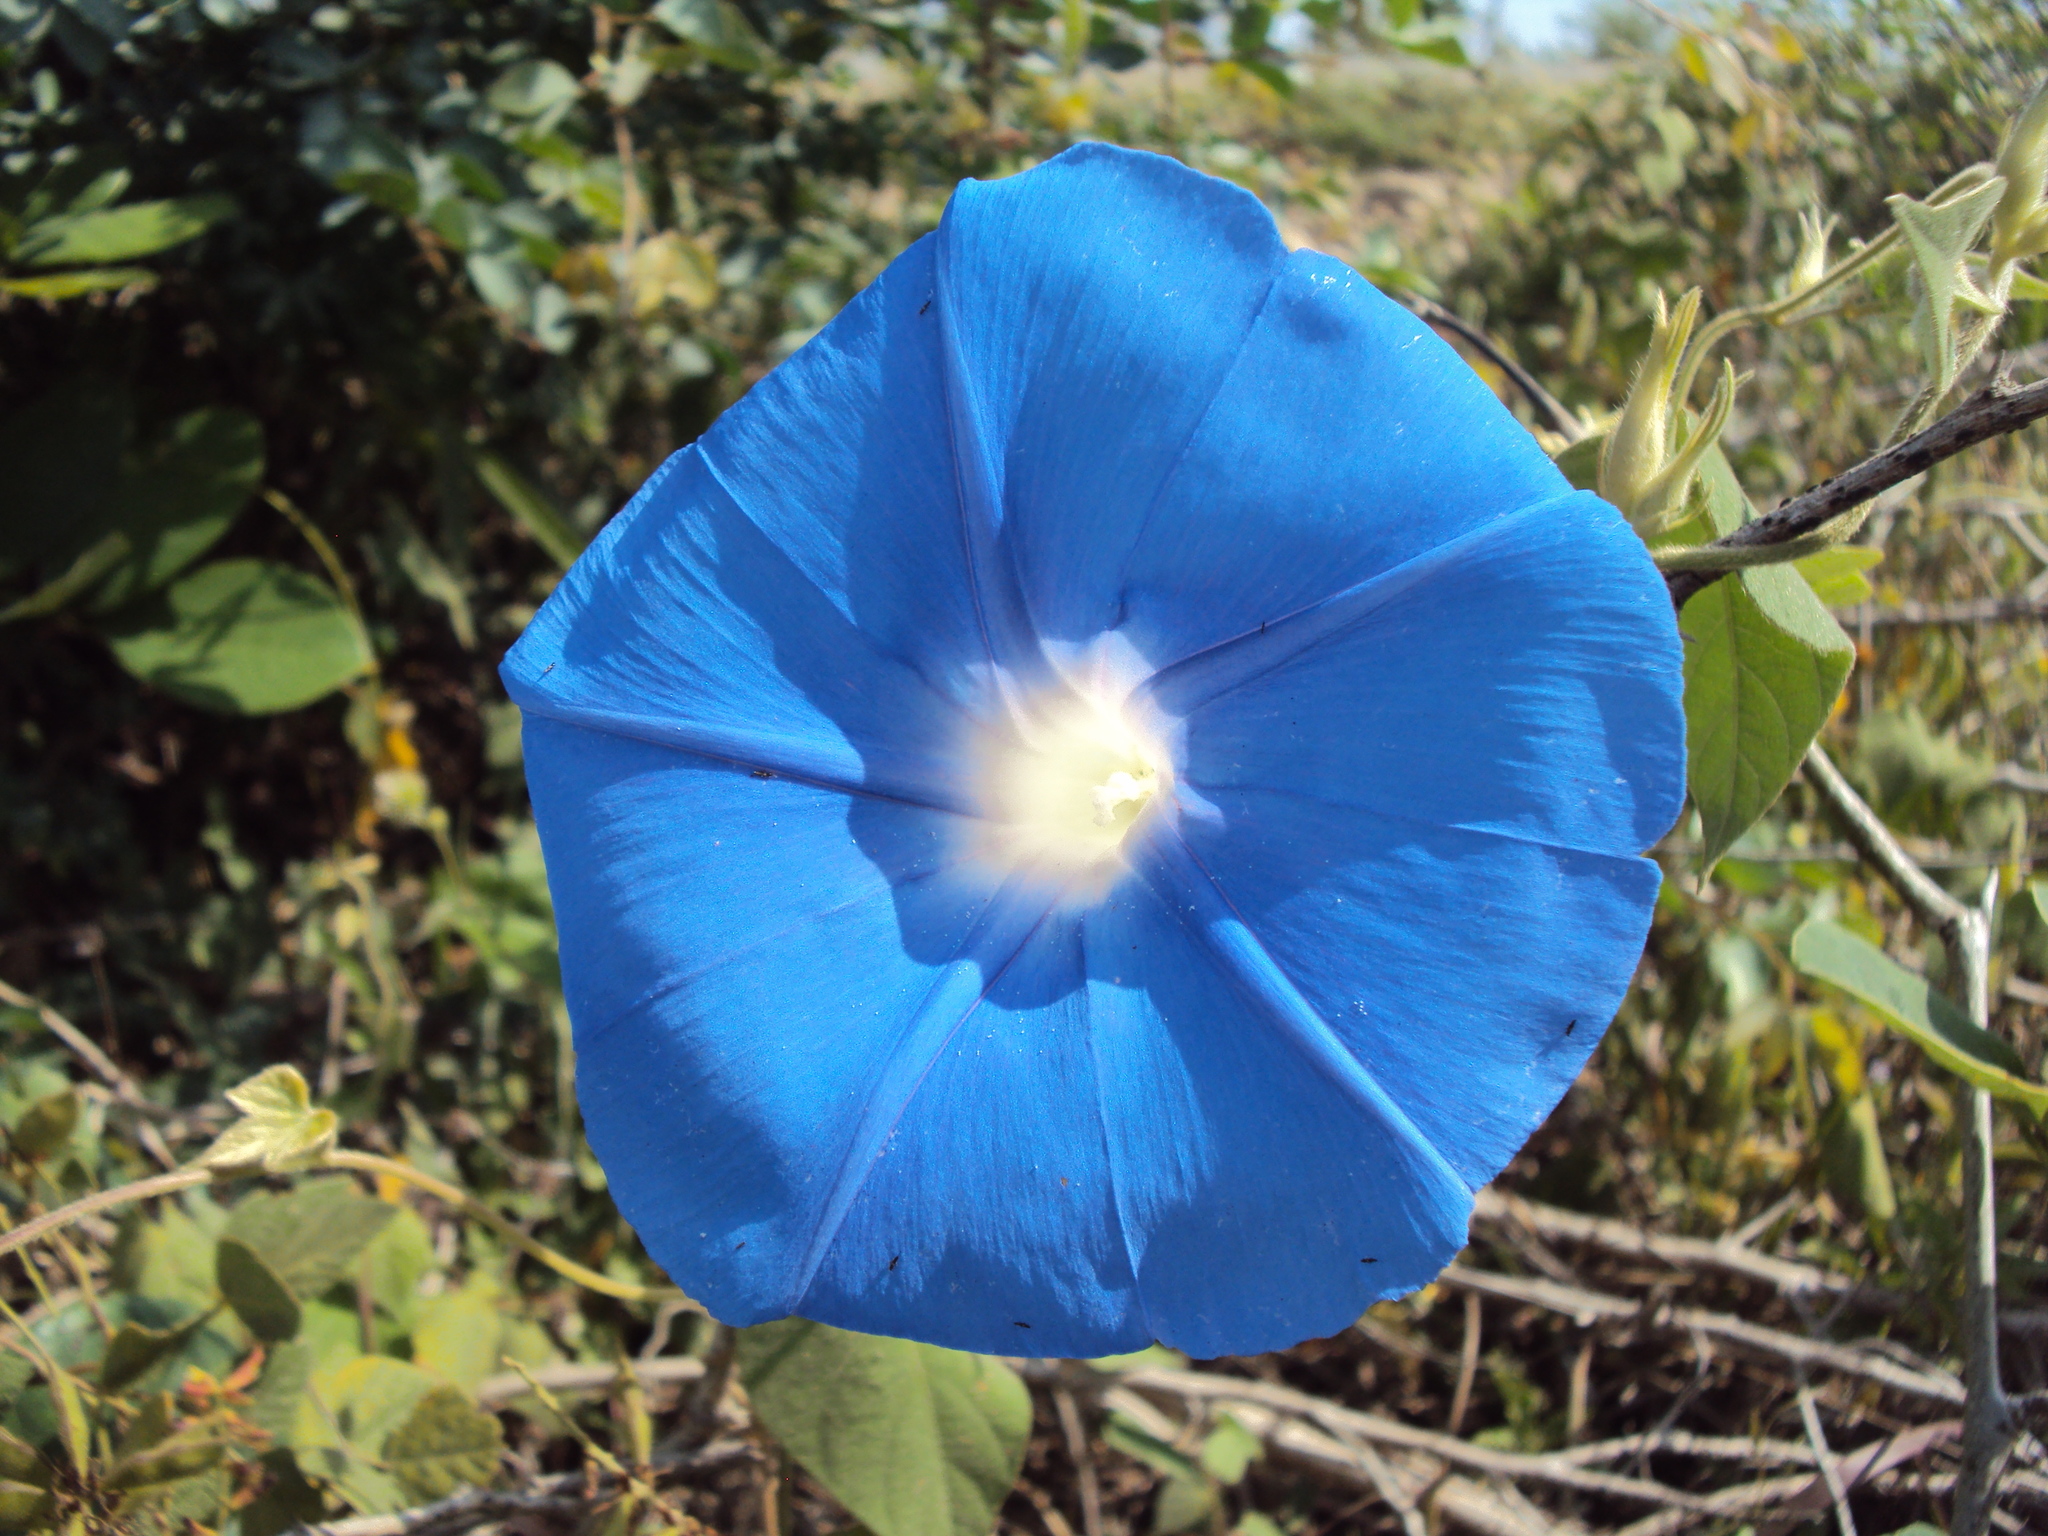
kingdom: Plantae
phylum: Tracheophyta
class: Magnoliopsida
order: Solanales
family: Convolvulaceae
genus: Ipomoea
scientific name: Ipomoea nil
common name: Japanese morning-glory
